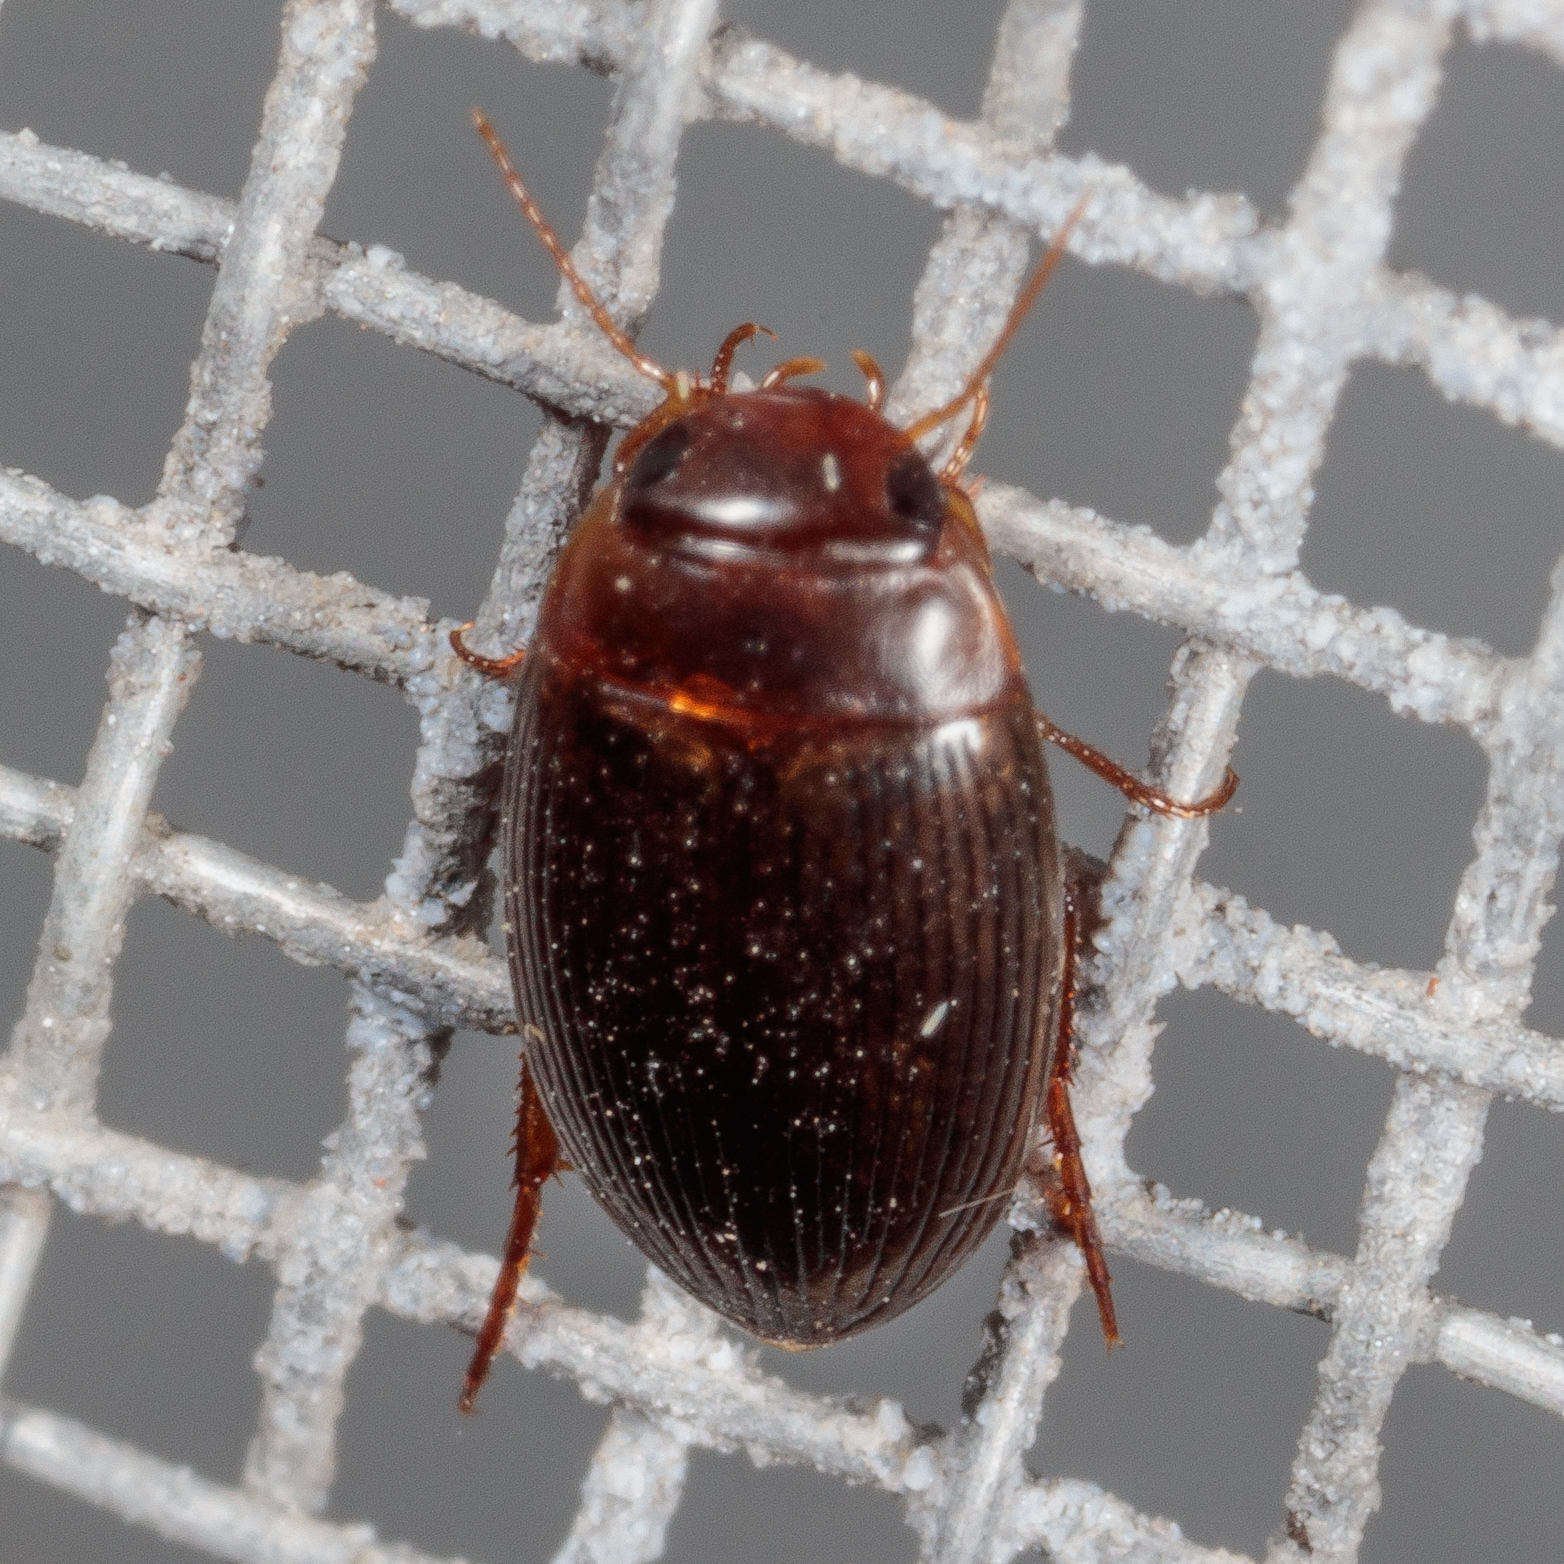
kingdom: Animalia
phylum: Arthropoda
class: Insecta
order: Coleoptera
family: Dytiscidae
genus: Copelatus
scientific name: Copelatus glyphicus
